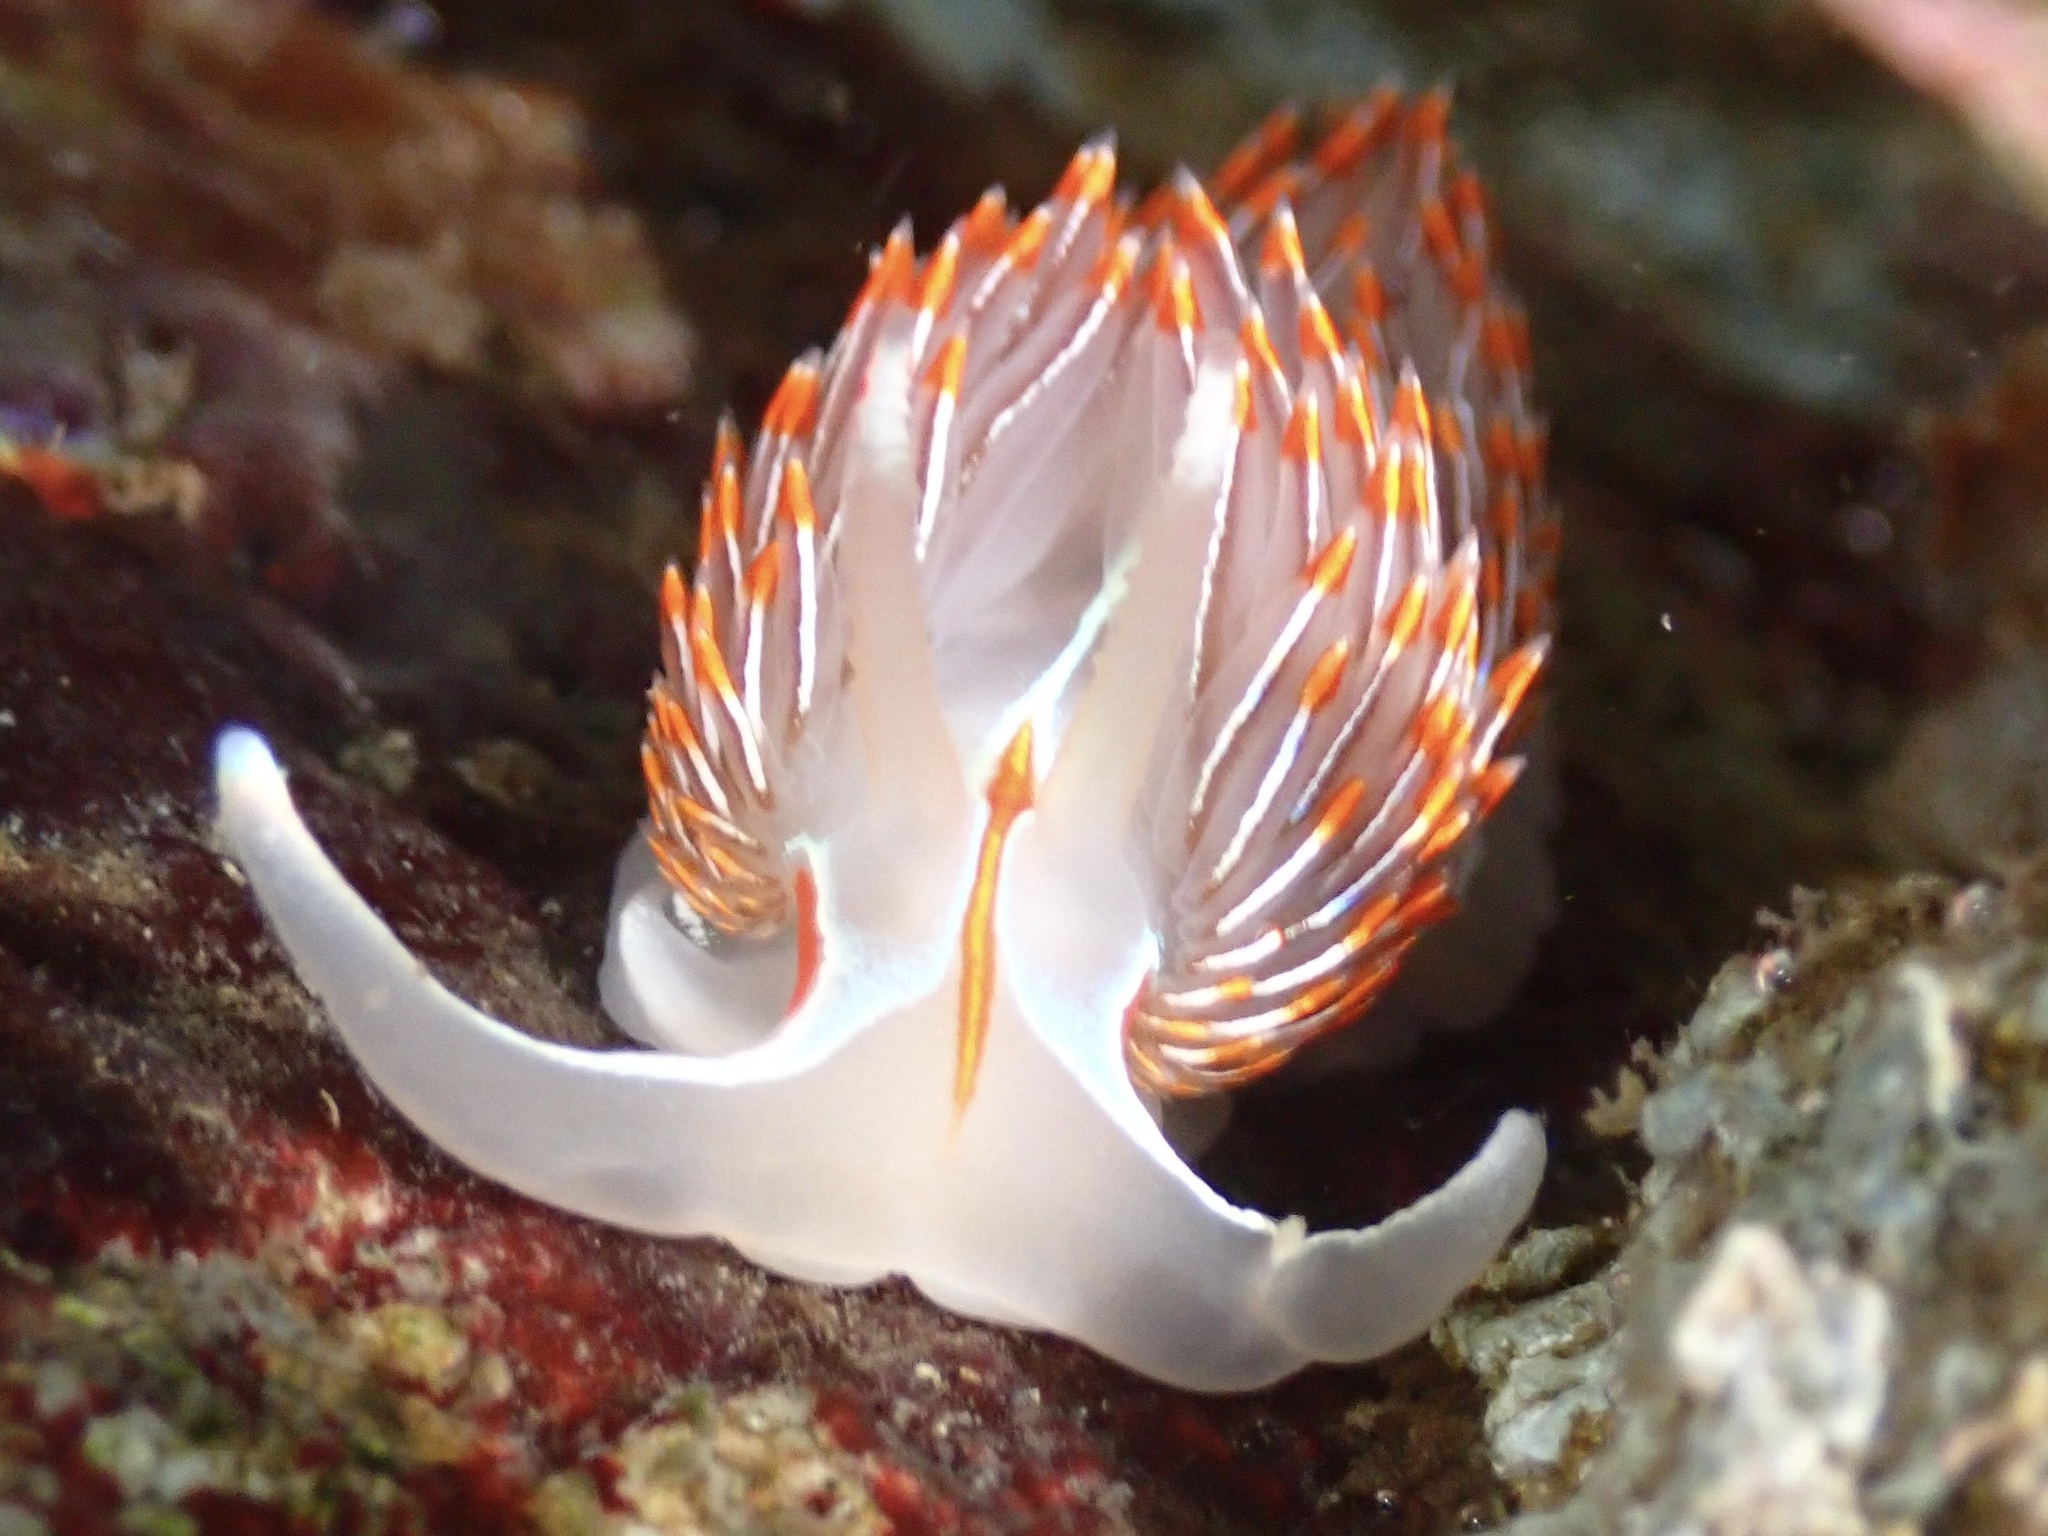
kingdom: Animalia
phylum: Mollusca
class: Gastropoda
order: Nudibranchia
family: Myrrhinidae
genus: Hermissenda
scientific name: Hermissenda crassicornis
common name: Hermissenda
